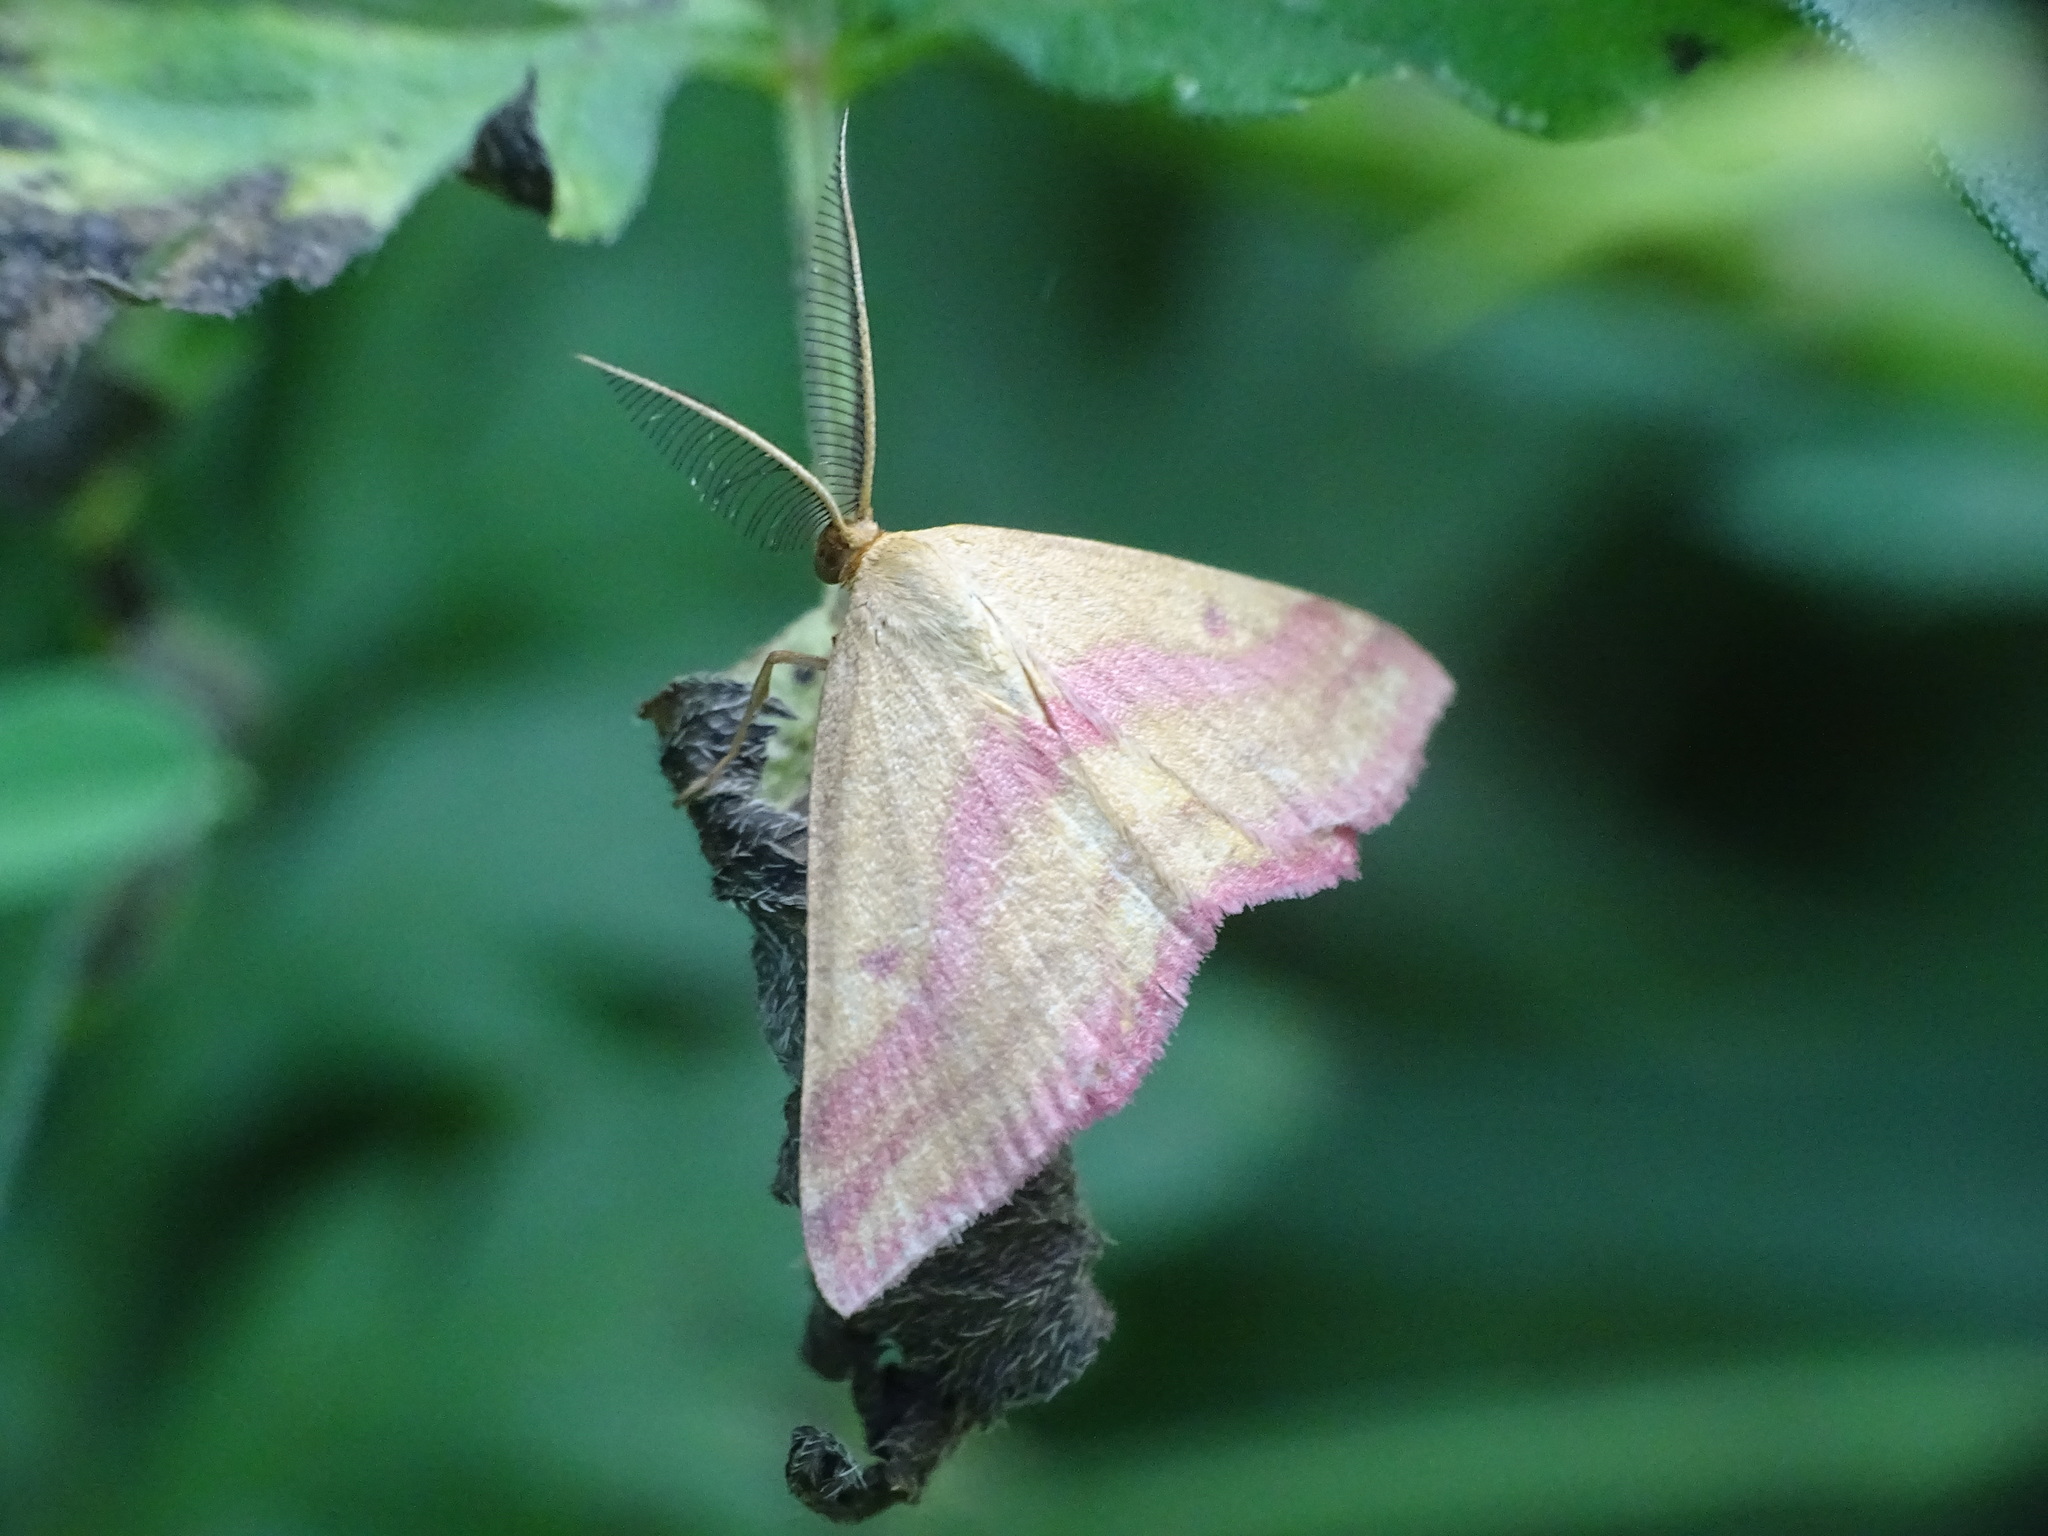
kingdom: Animalia
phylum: Arthropoda
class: Insecta
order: Lepidoptera
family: Geometridae
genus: Haematopis
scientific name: Haematopis grataria
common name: Chickweed geometer
